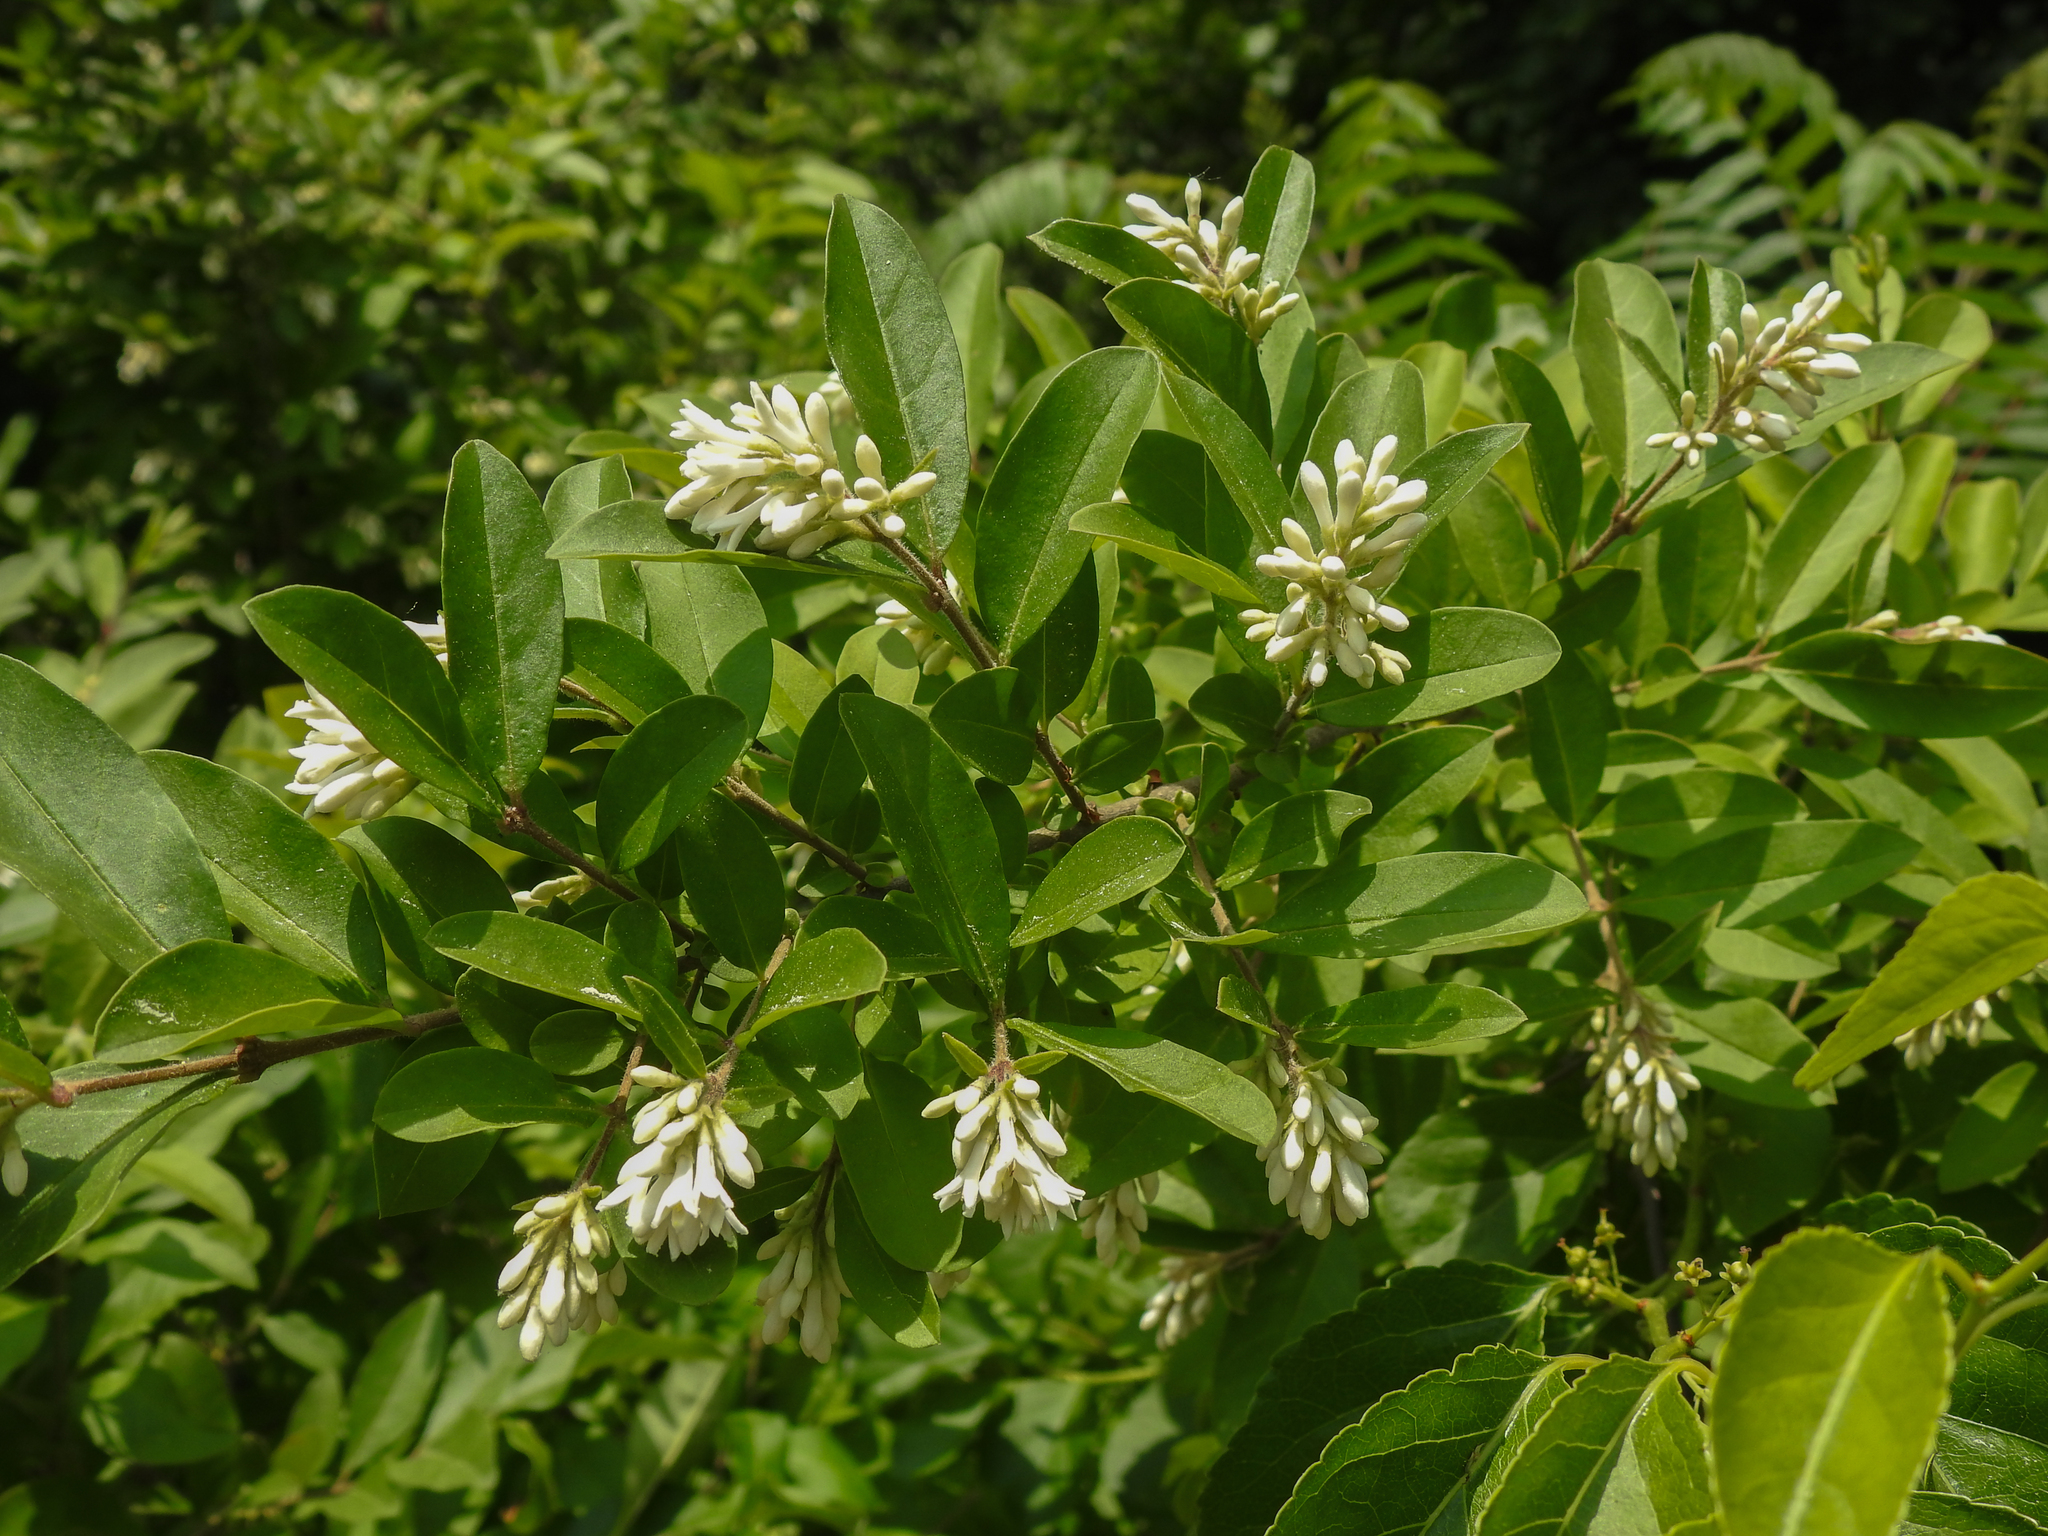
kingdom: Plantae
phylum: Tracheophyta
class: Magnoliopsida
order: Lamiales
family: Oleaceae
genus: Ligustrum
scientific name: Ligustrum obtusifolium
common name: Border privet
